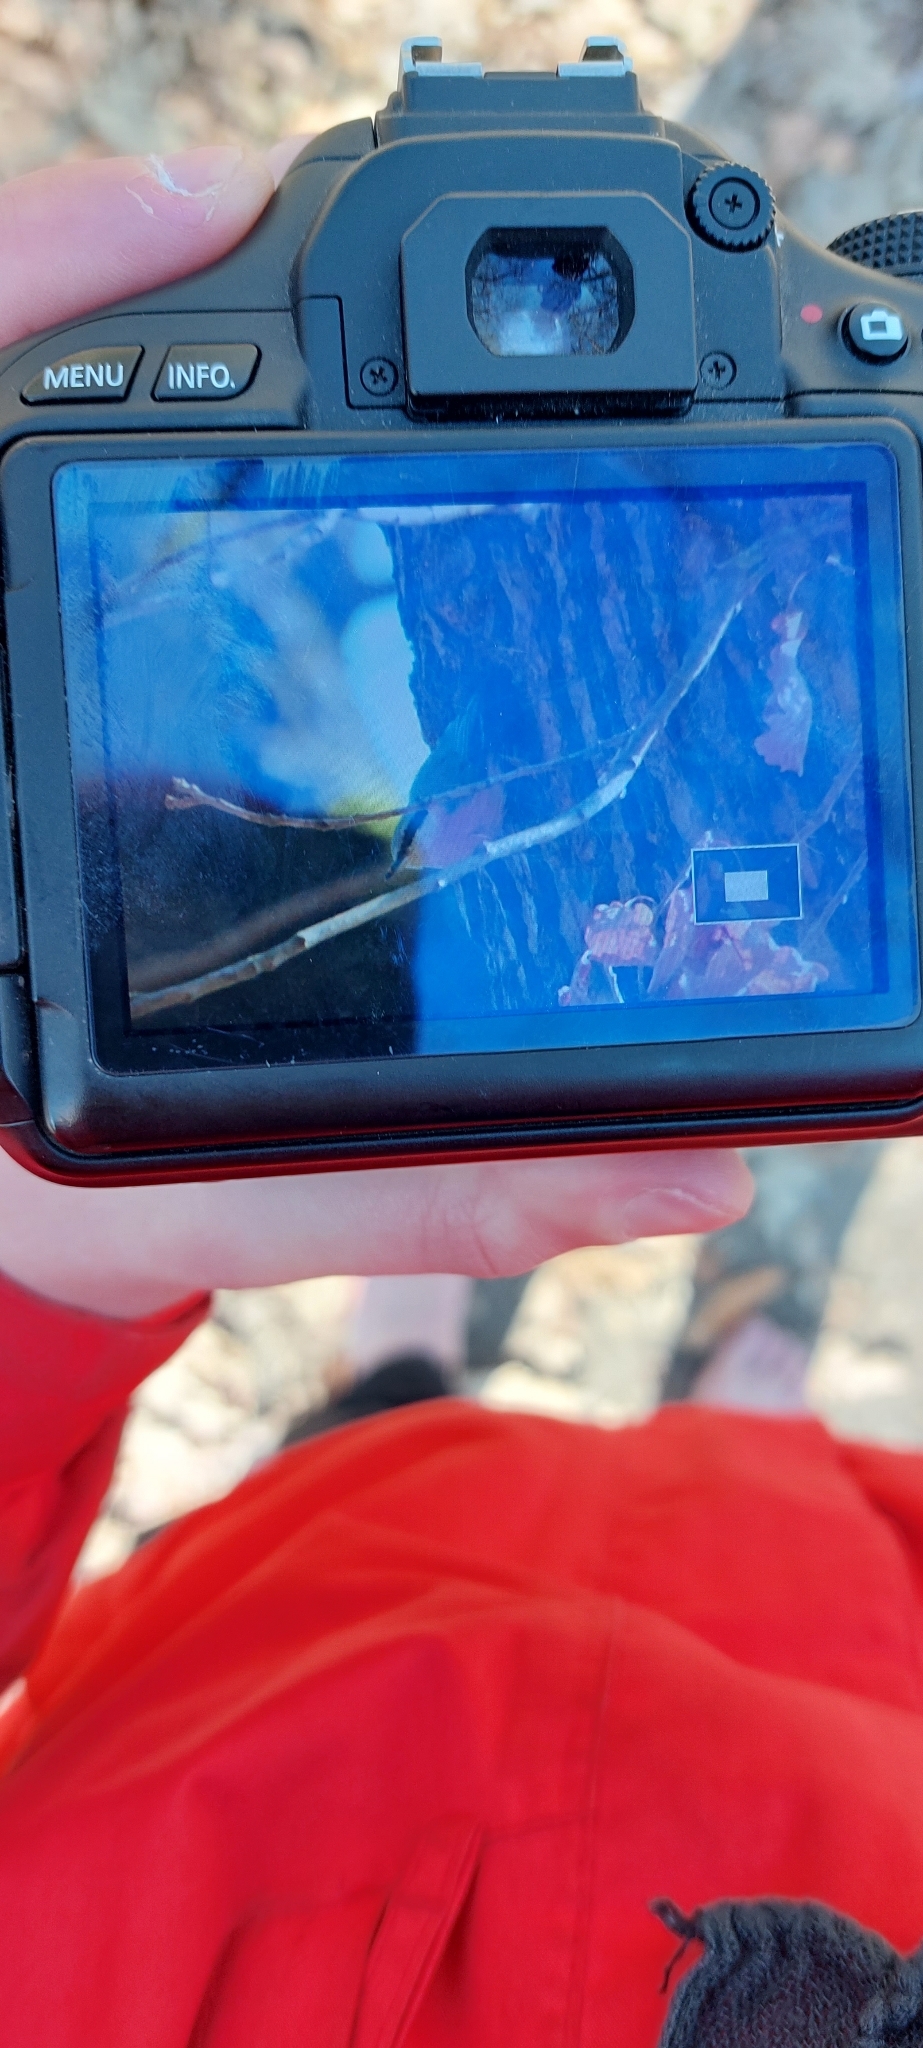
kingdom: Animalia
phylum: Chordata
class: Aves
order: Passeriformes
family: Sittidae
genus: Sitta
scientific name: Sitta europaea
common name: Eurasian nuthatch
